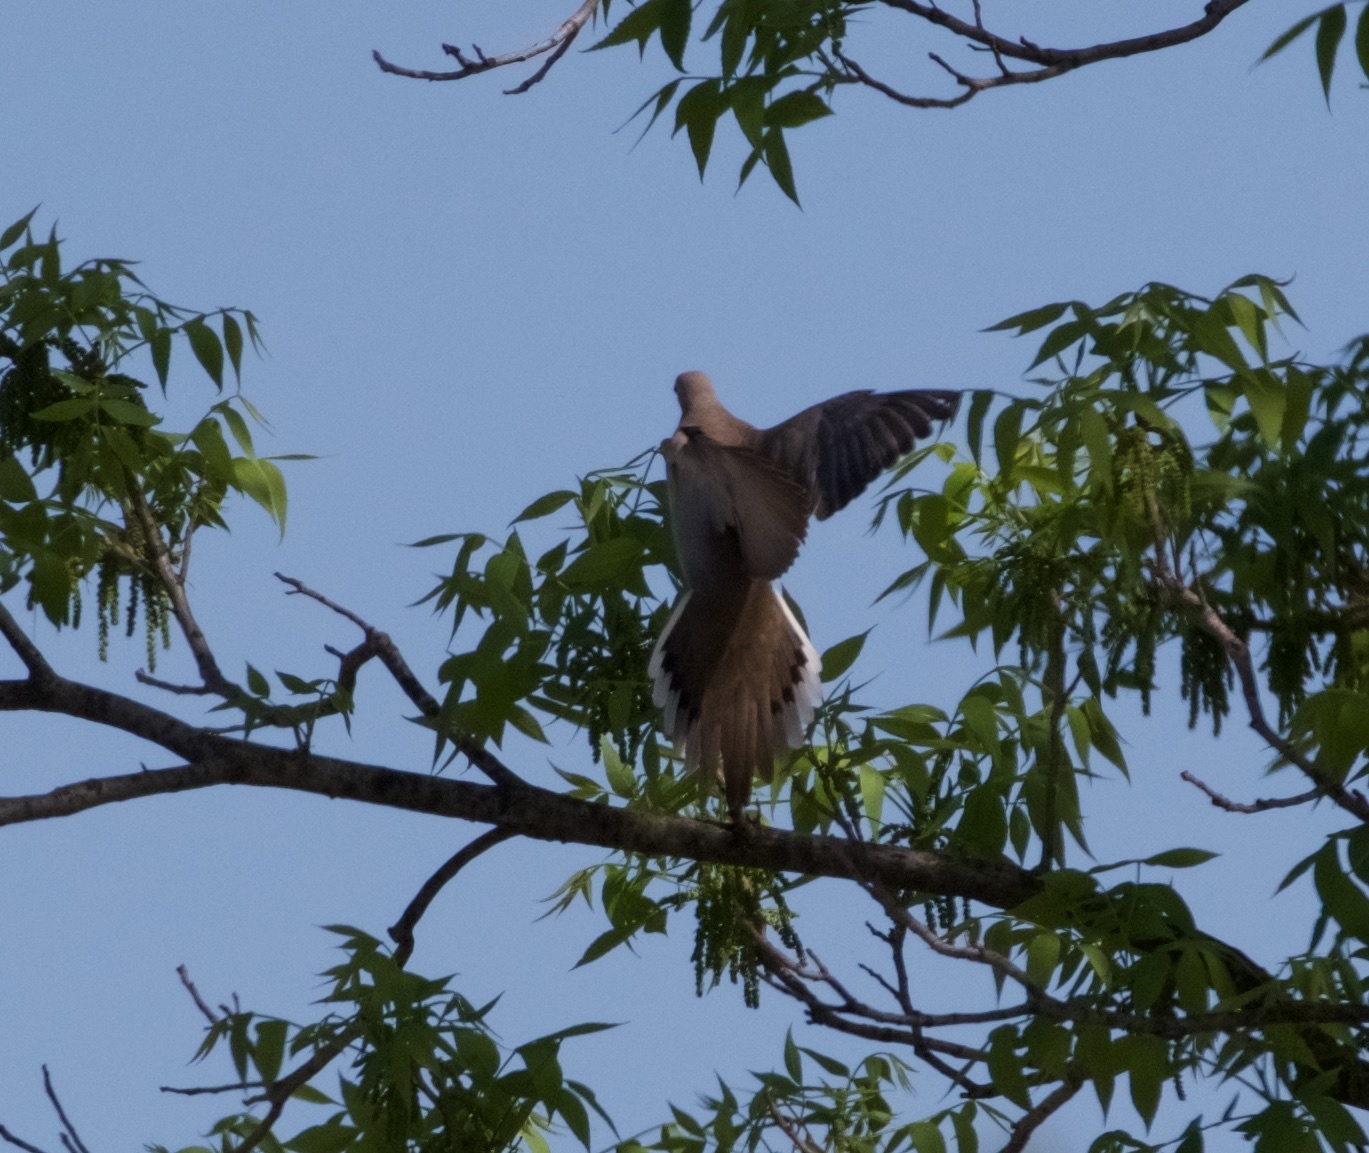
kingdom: Animalia
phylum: Chordata
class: Aves
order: Columbiformes
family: Columbidae
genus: Zenaida
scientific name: Zenaida macroura
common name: Mourning dove
